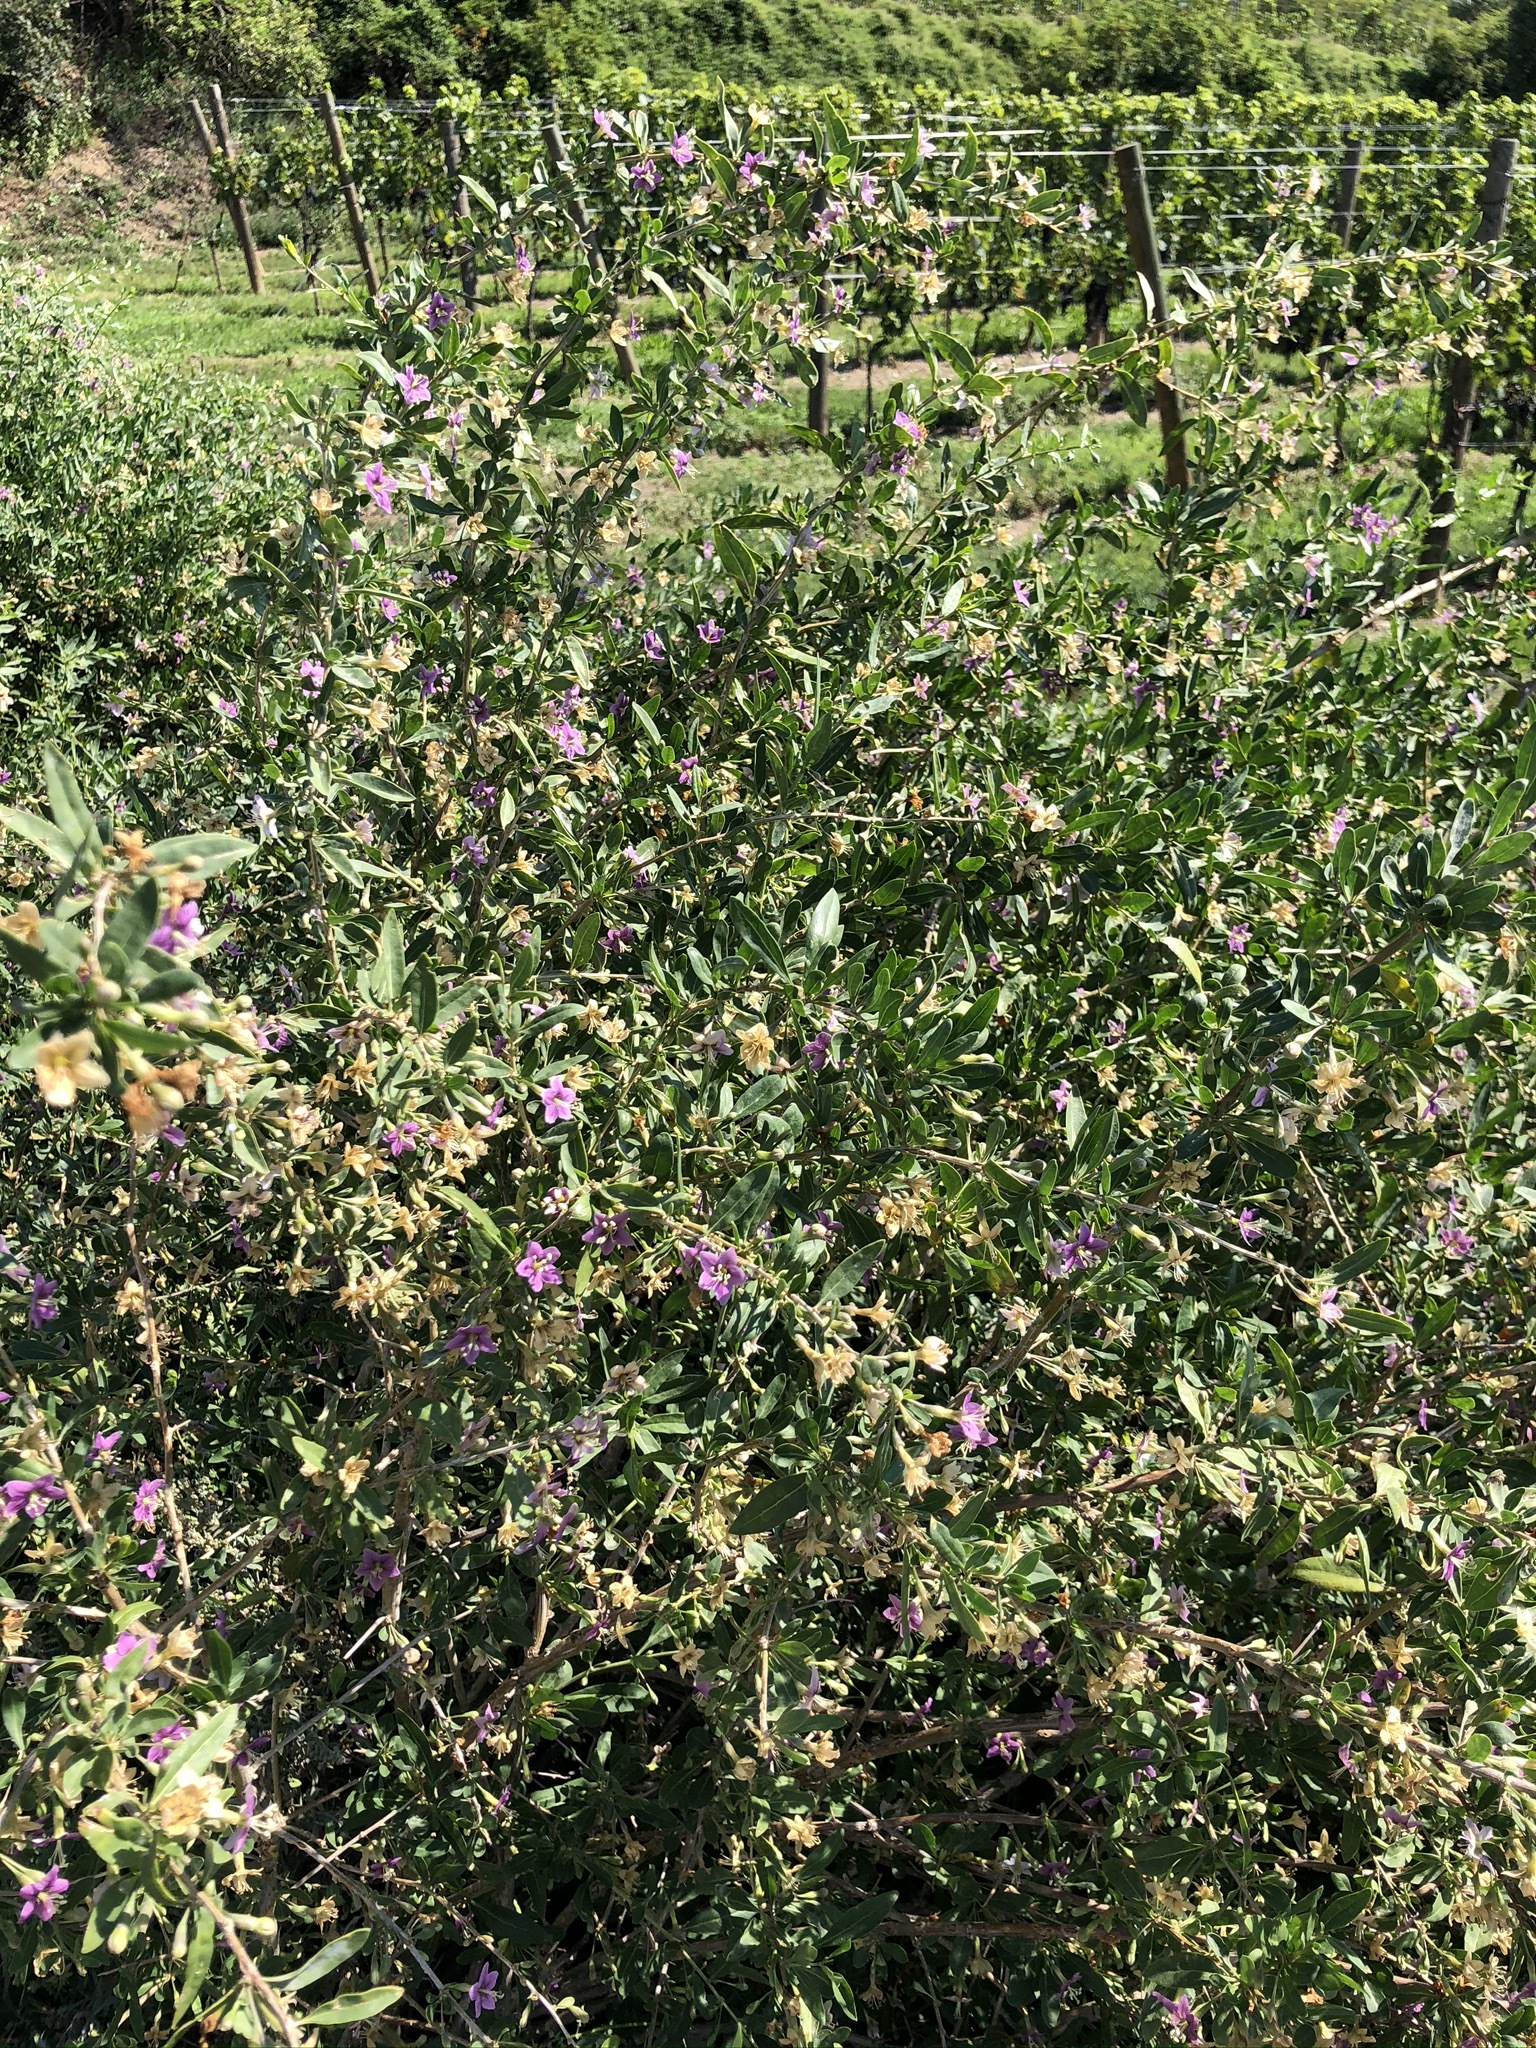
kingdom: Plantae
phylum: Tracheophyta
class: Magnoliopsida
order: Solanales
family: Solanaceae
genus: Lycium
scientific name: Lycium barbarum
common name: Duke of argyll's teaplant
